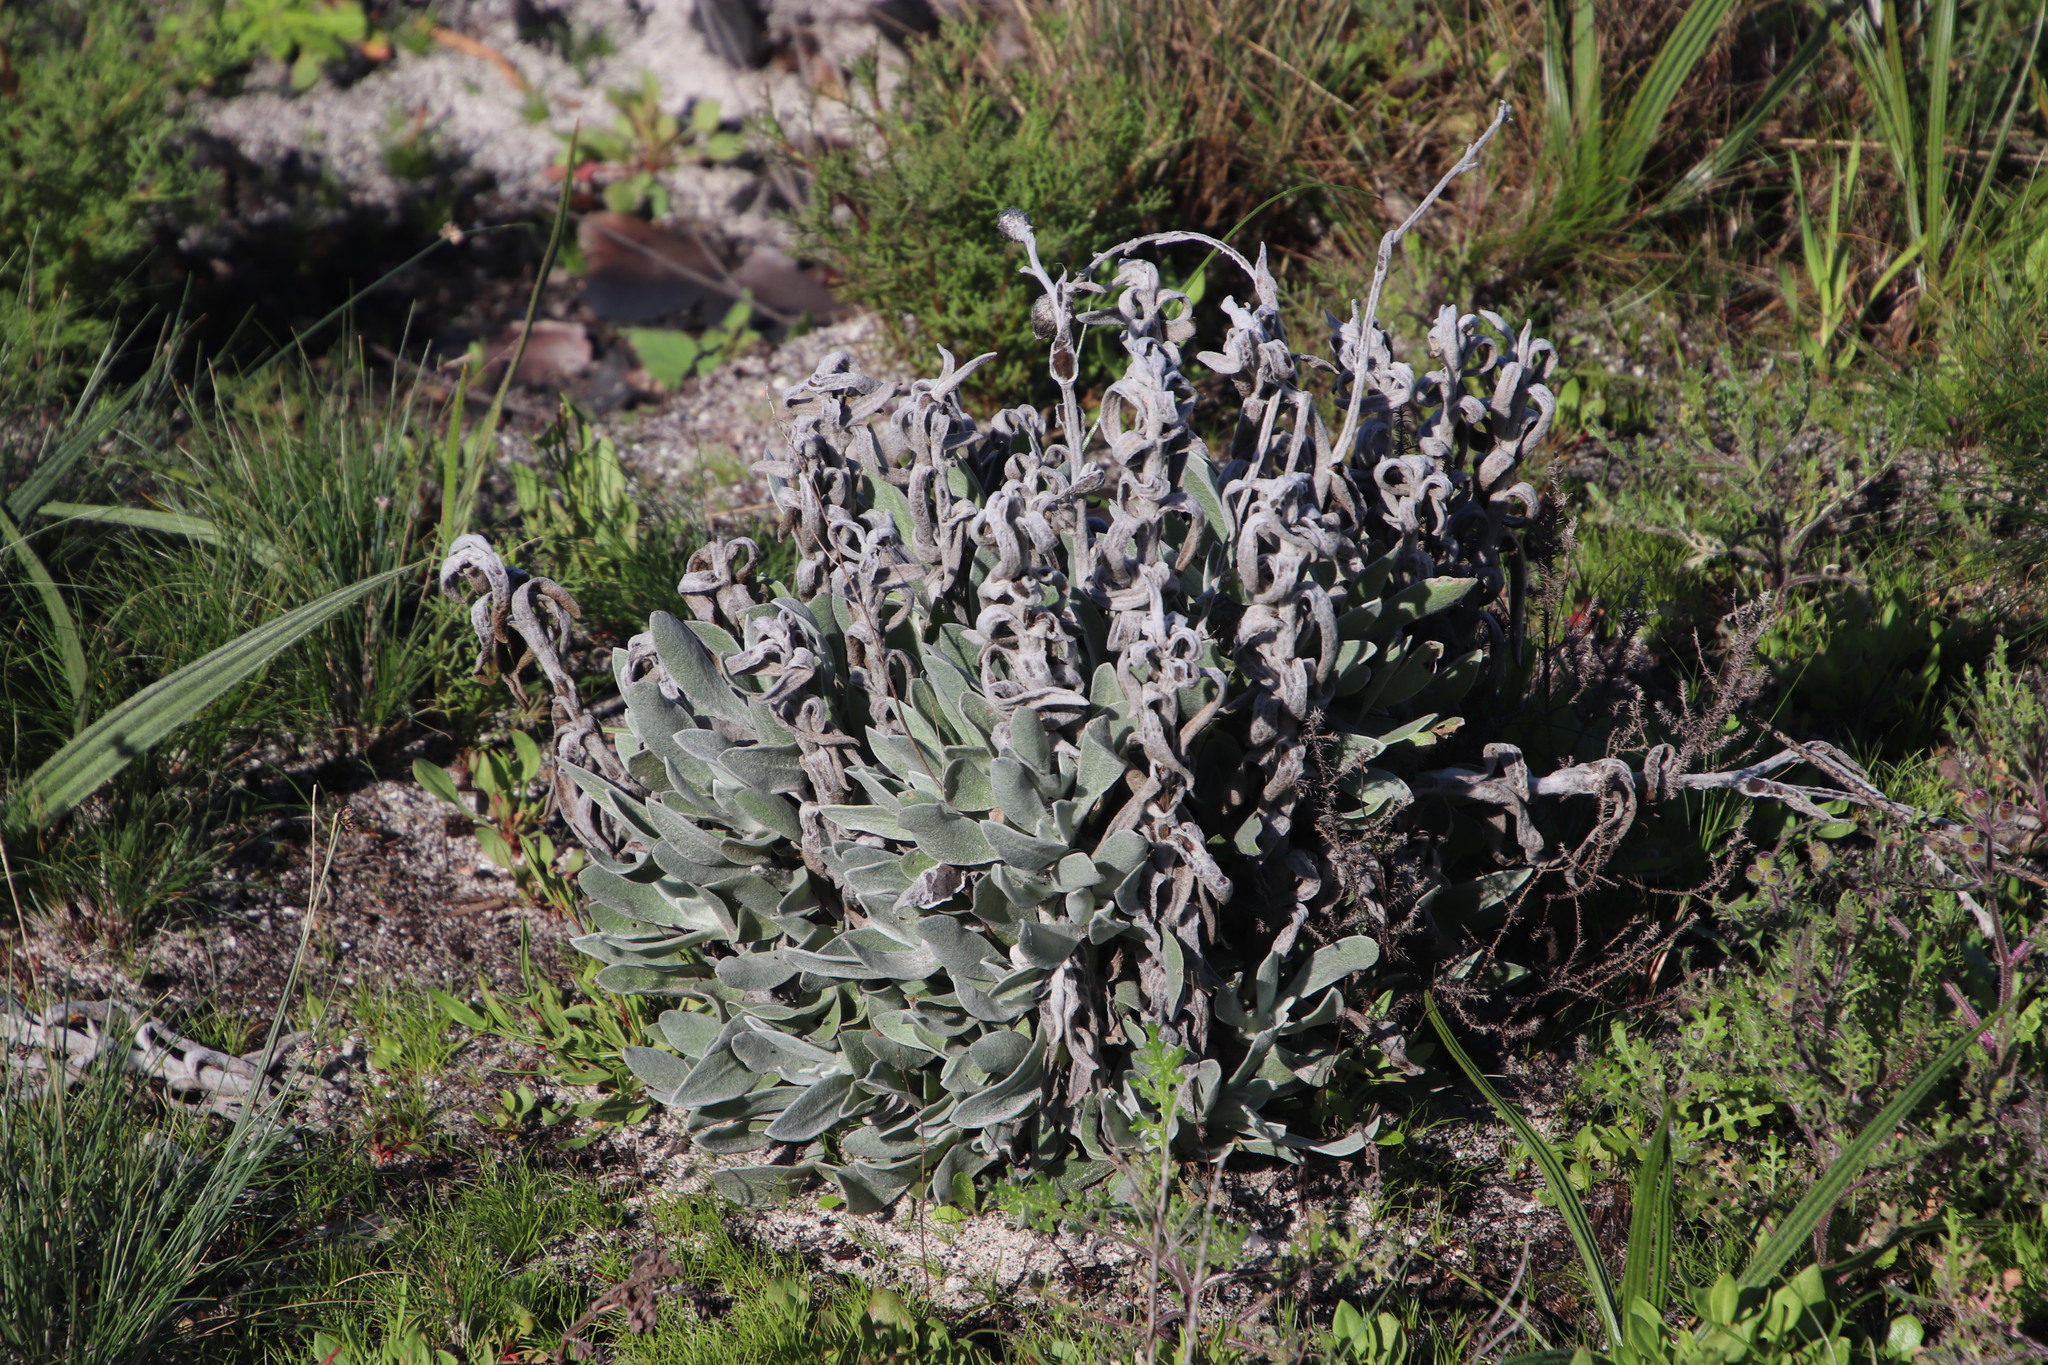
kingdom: Plantae
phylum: Tracheophyta
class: Magnoliopsida
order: Asterales
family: Asteraceae
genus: Syncarpha
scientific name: Syncarpha vestita
